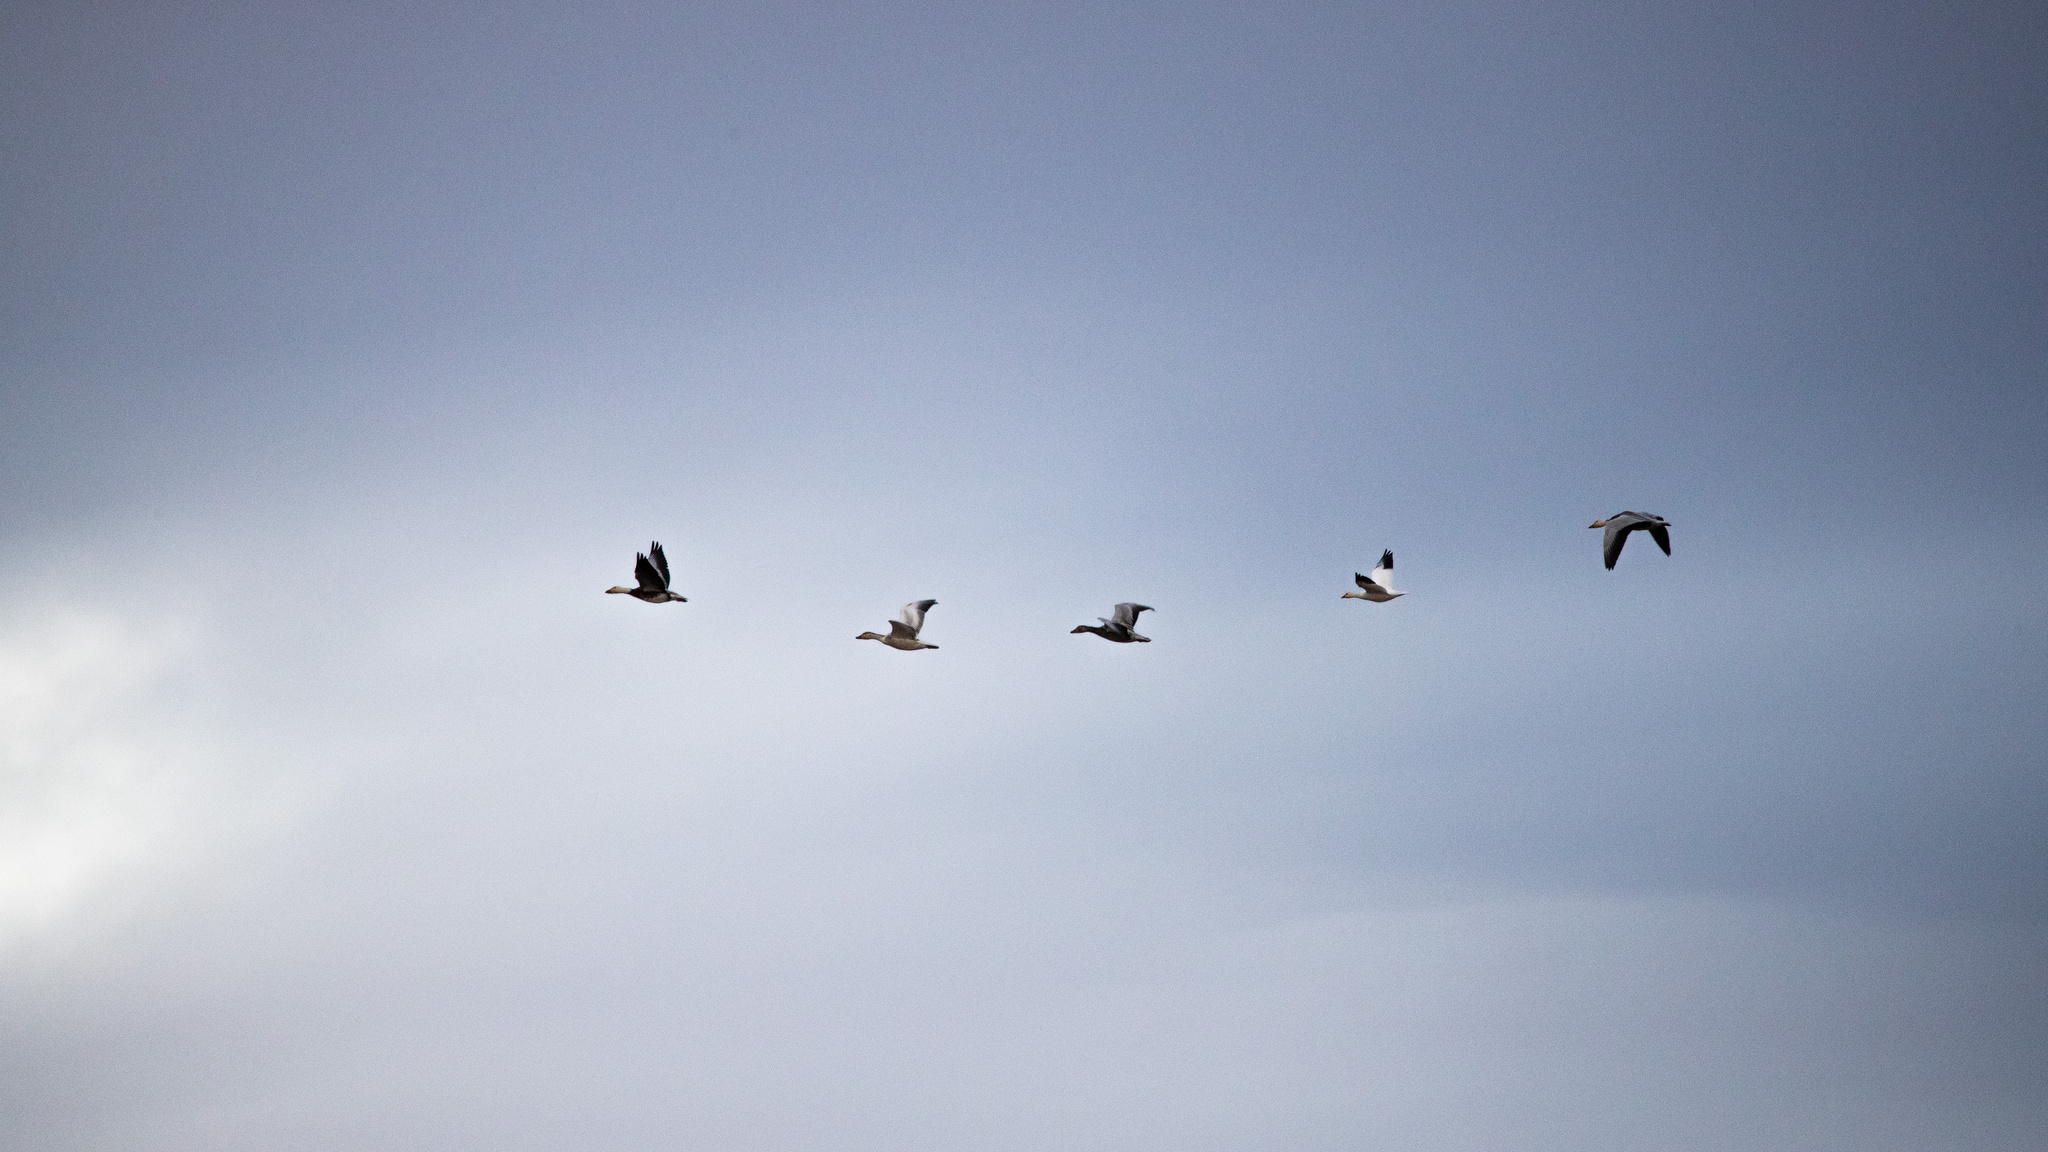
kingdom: Animalia
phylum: Chordata
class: Aves
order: Anseriformes
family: Anatidae
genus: Anser
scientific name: Anser caerulescens
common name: Snow goose
